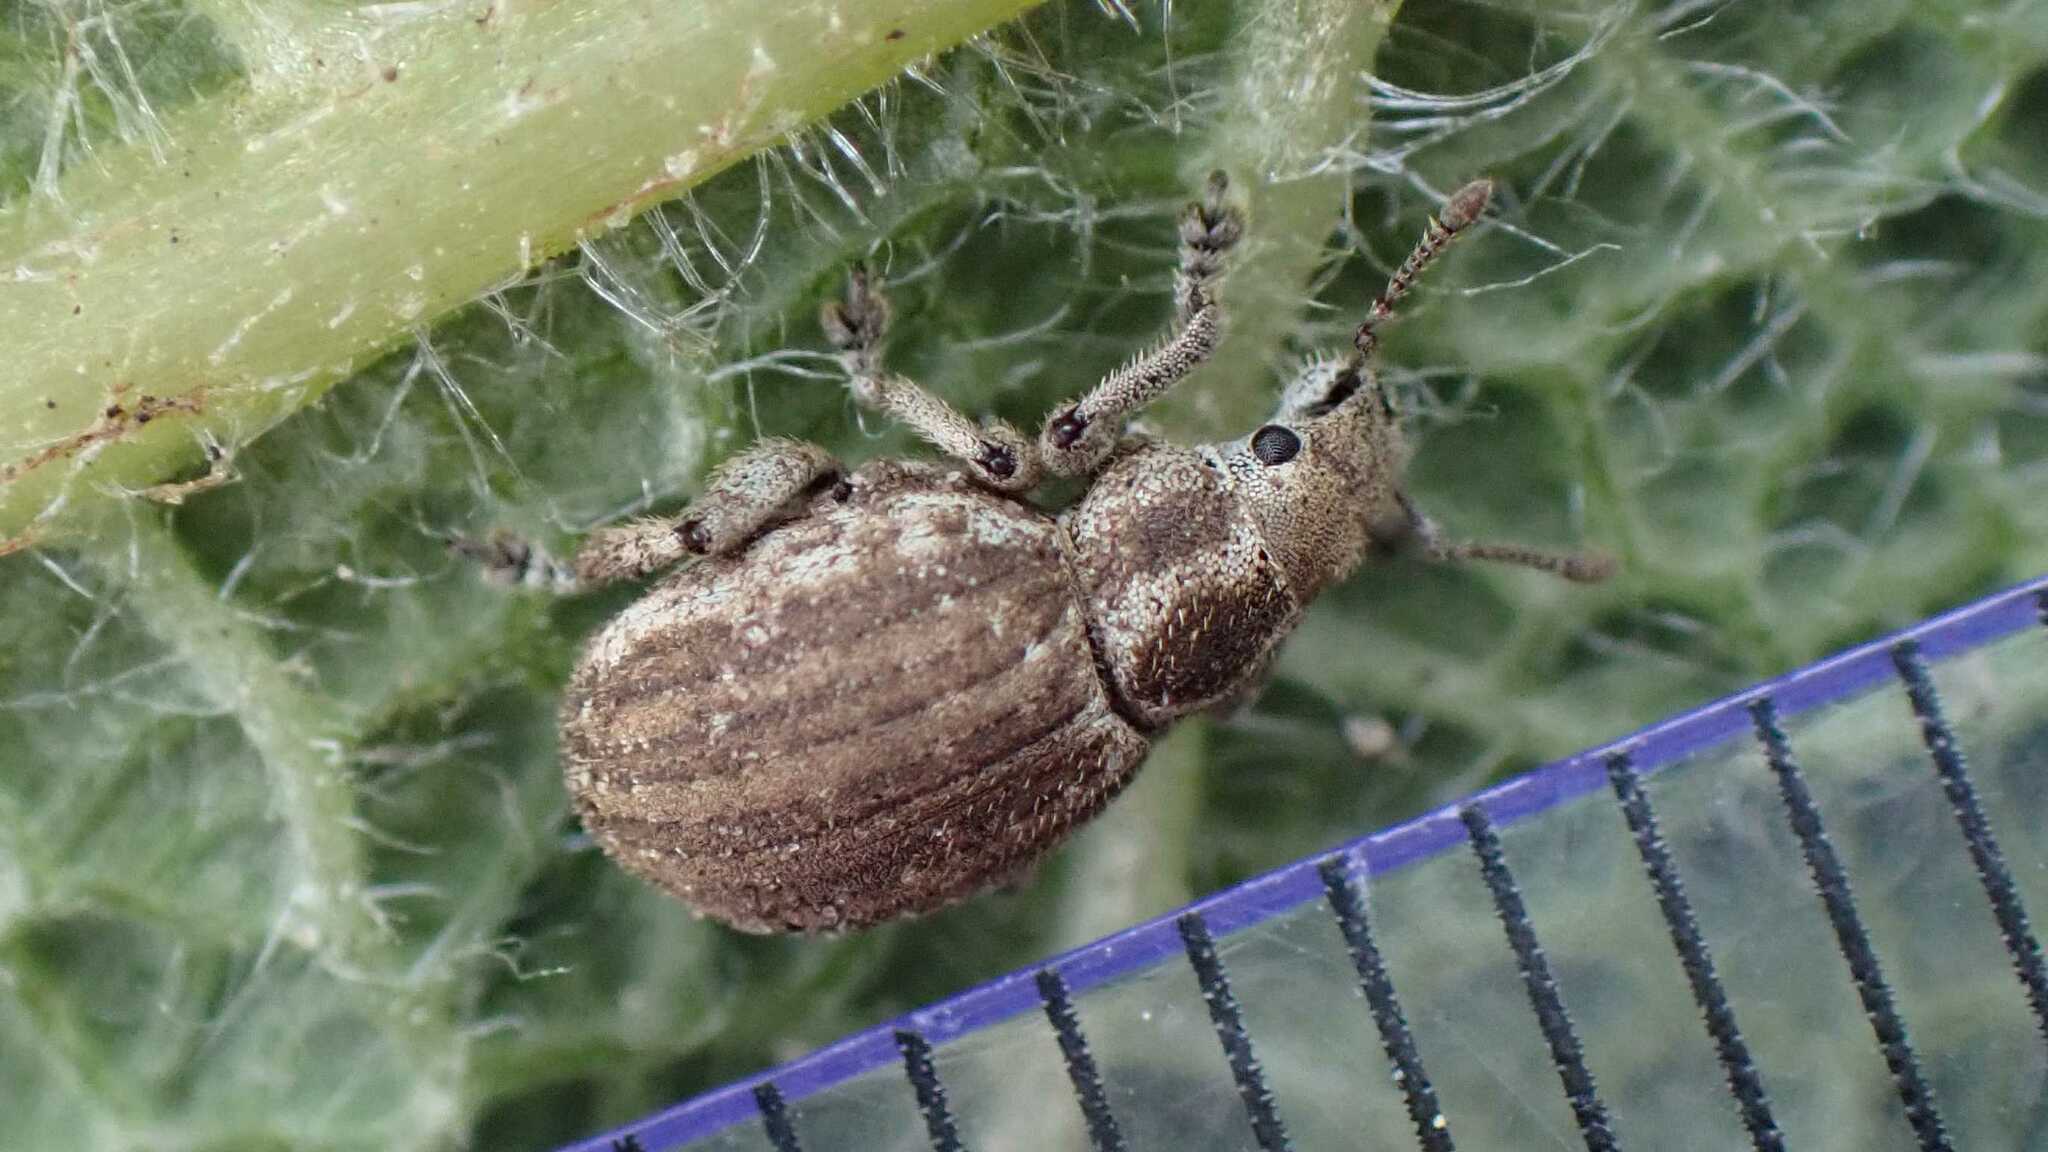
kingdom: Animalia
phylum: Arthropoda
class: Insecta
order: Coleoptera
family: Curculionidae
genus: Philopedon
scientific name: Philopedon plagiatum
